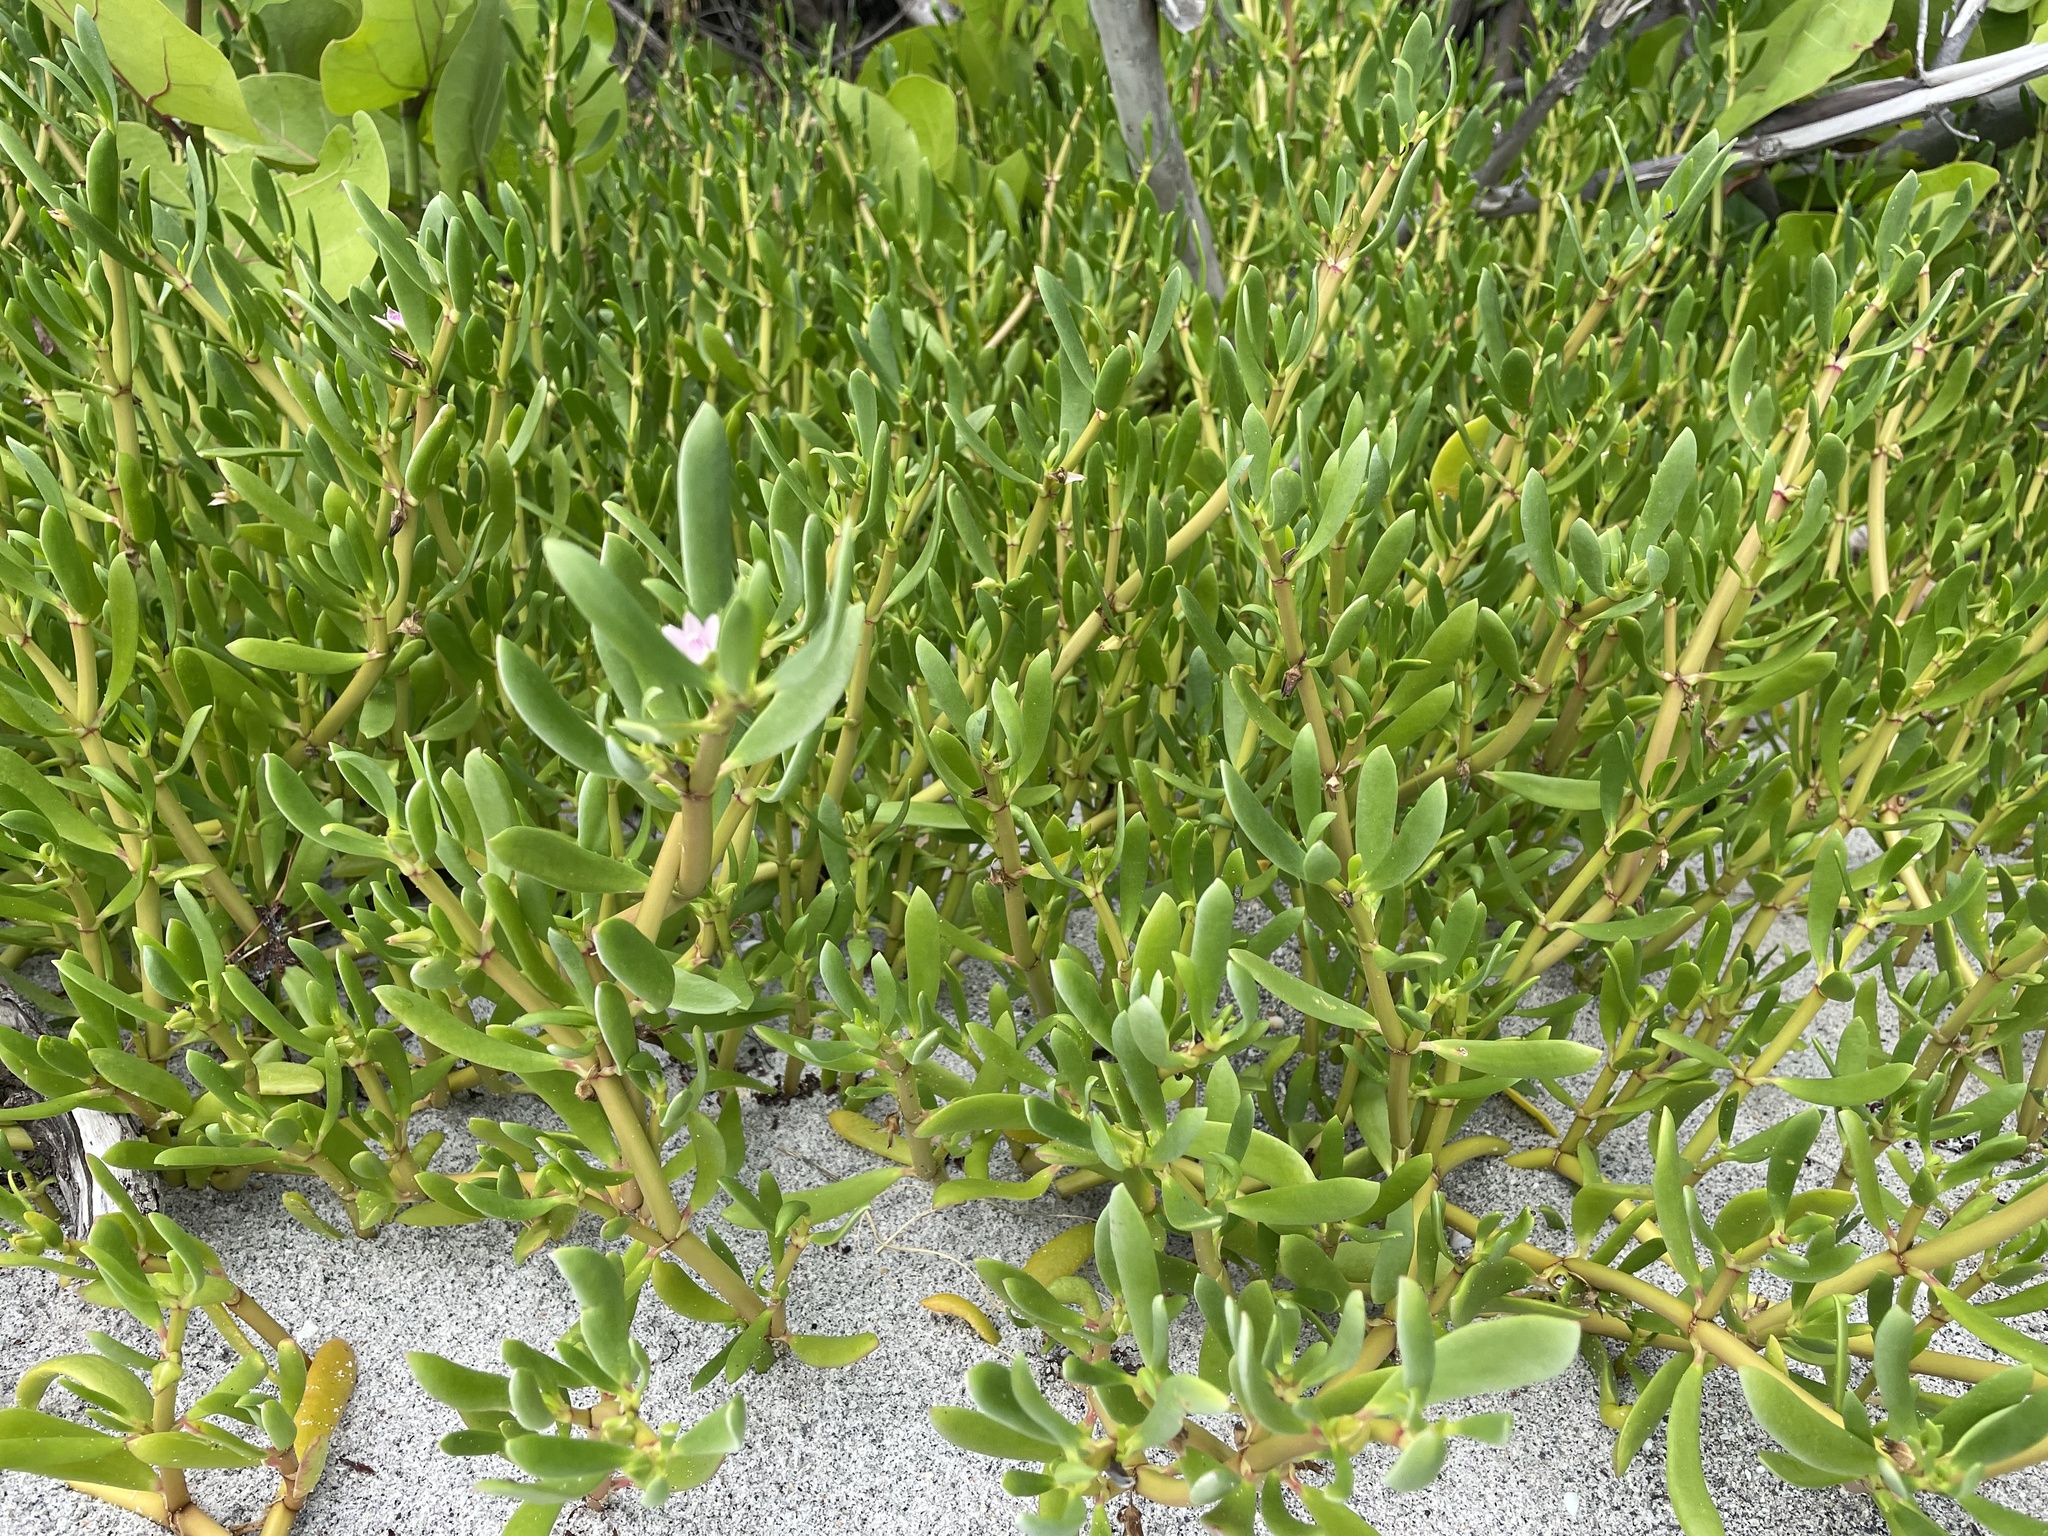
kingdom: Plantae
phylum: Tracheophyta
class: Magnoliopsida
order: Caryophyllales
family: Aizoaceae
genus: Sesuvium
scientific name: Sesuvium portulacastrum
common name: Sea-purslane
